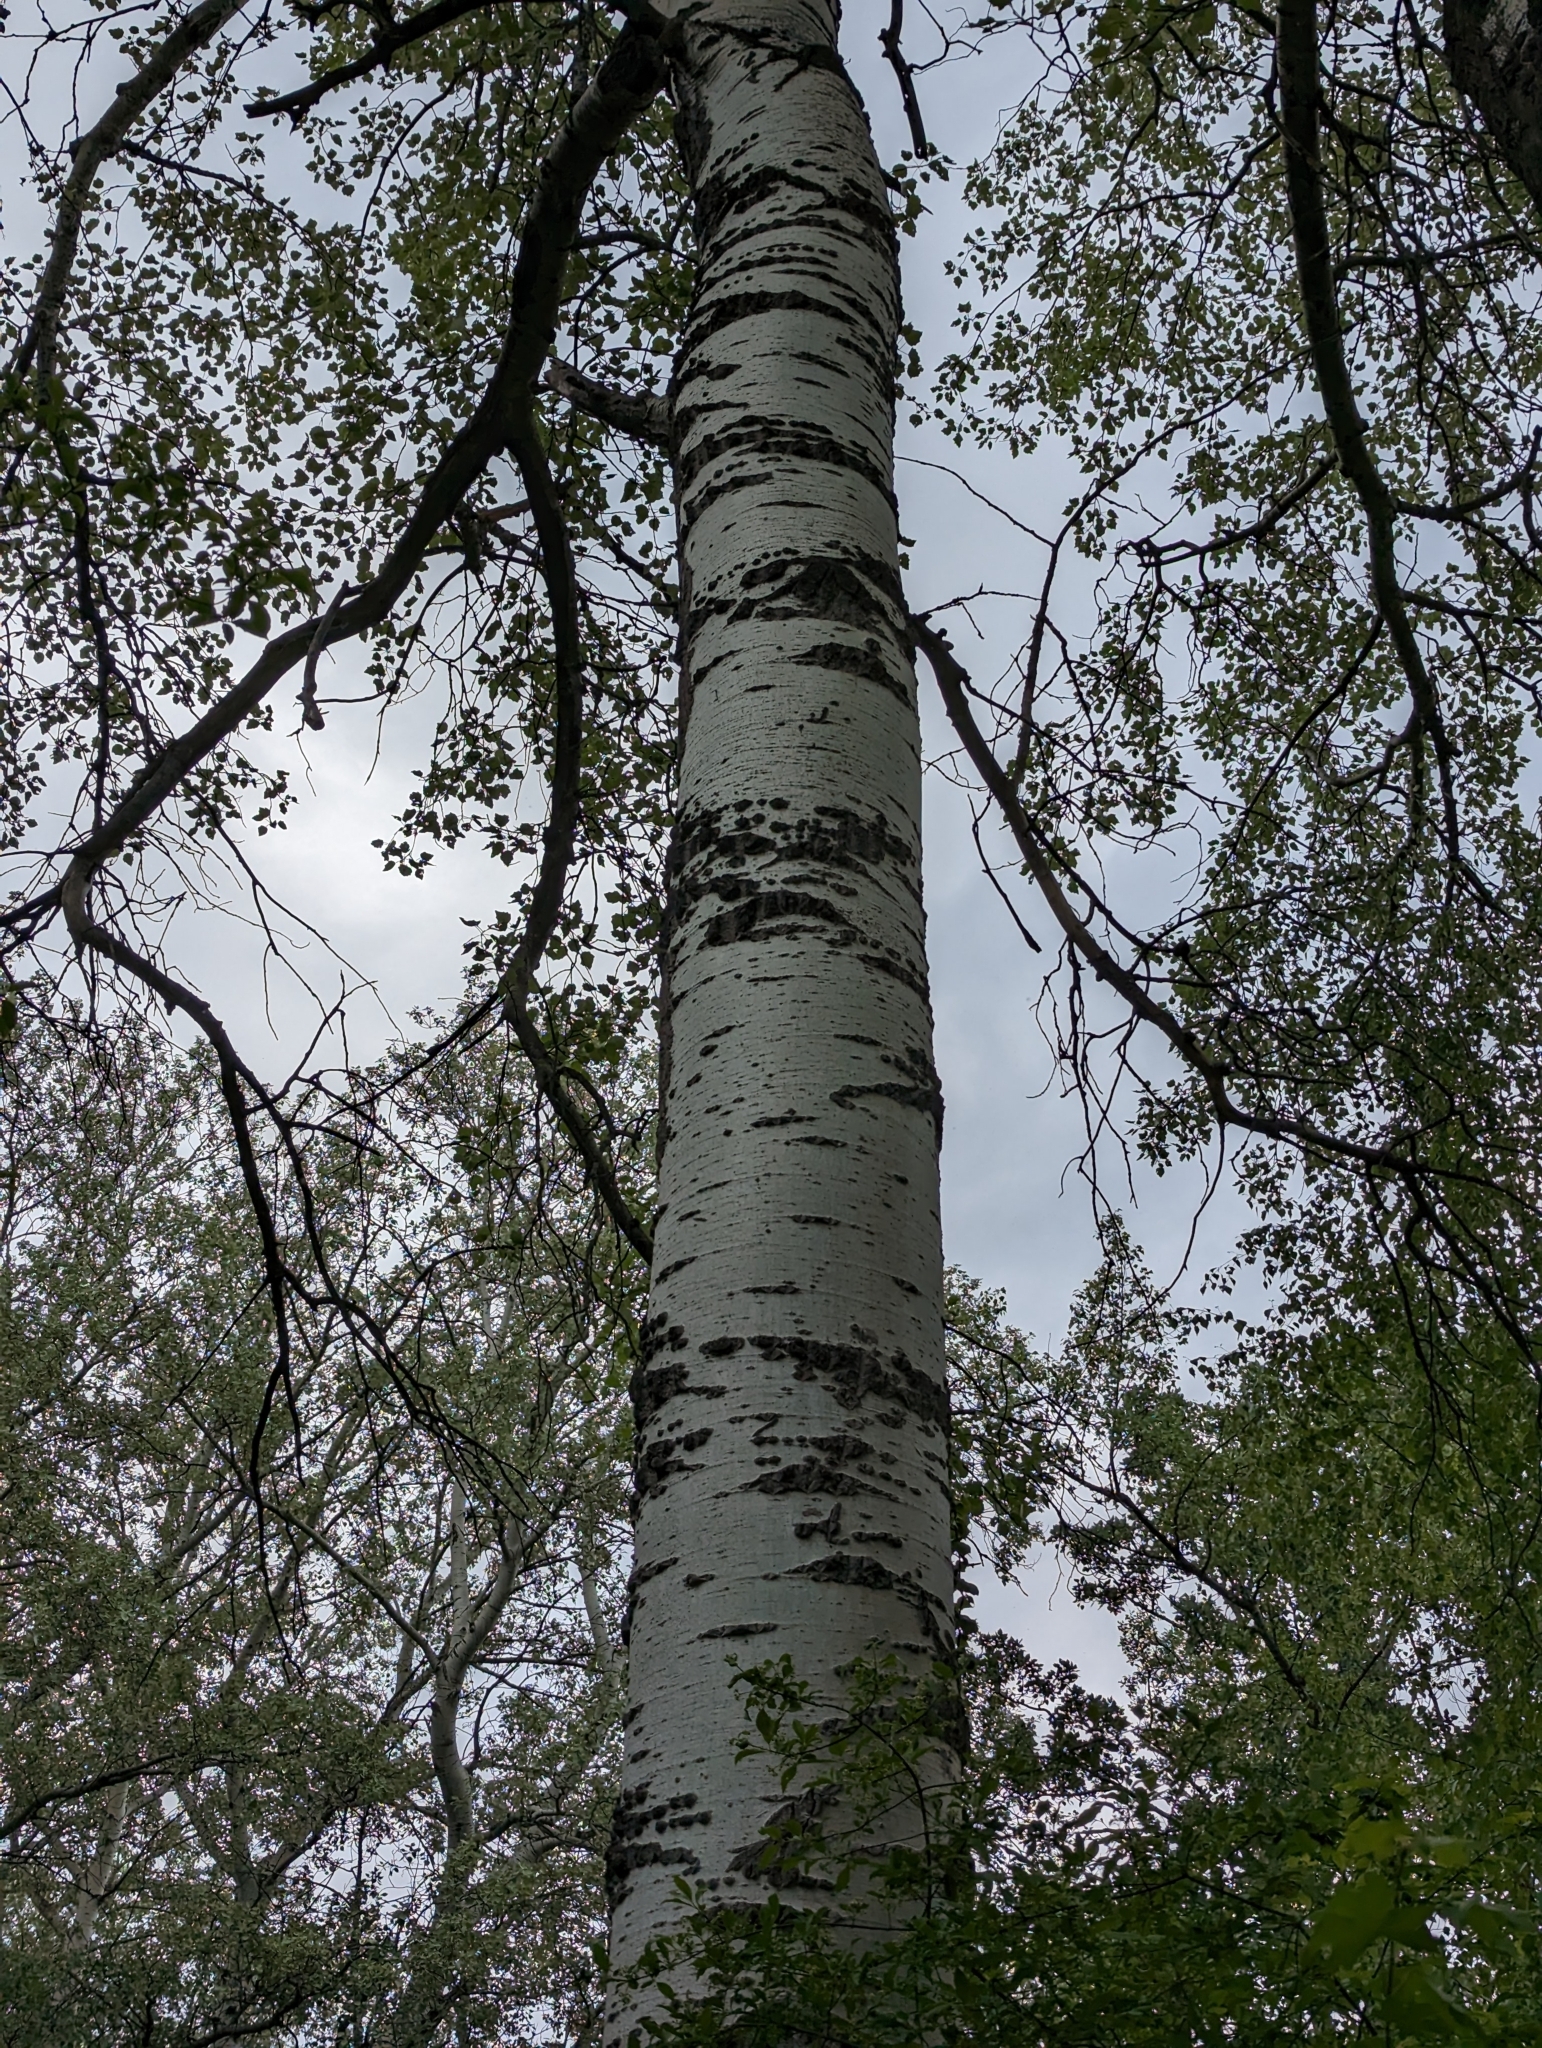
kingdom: Plantae
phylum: Tracheophyta
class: Magnoliopsida
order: Fagales
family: Betulaceae
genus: Betula
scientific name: Betula pendula
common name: Silver birch
